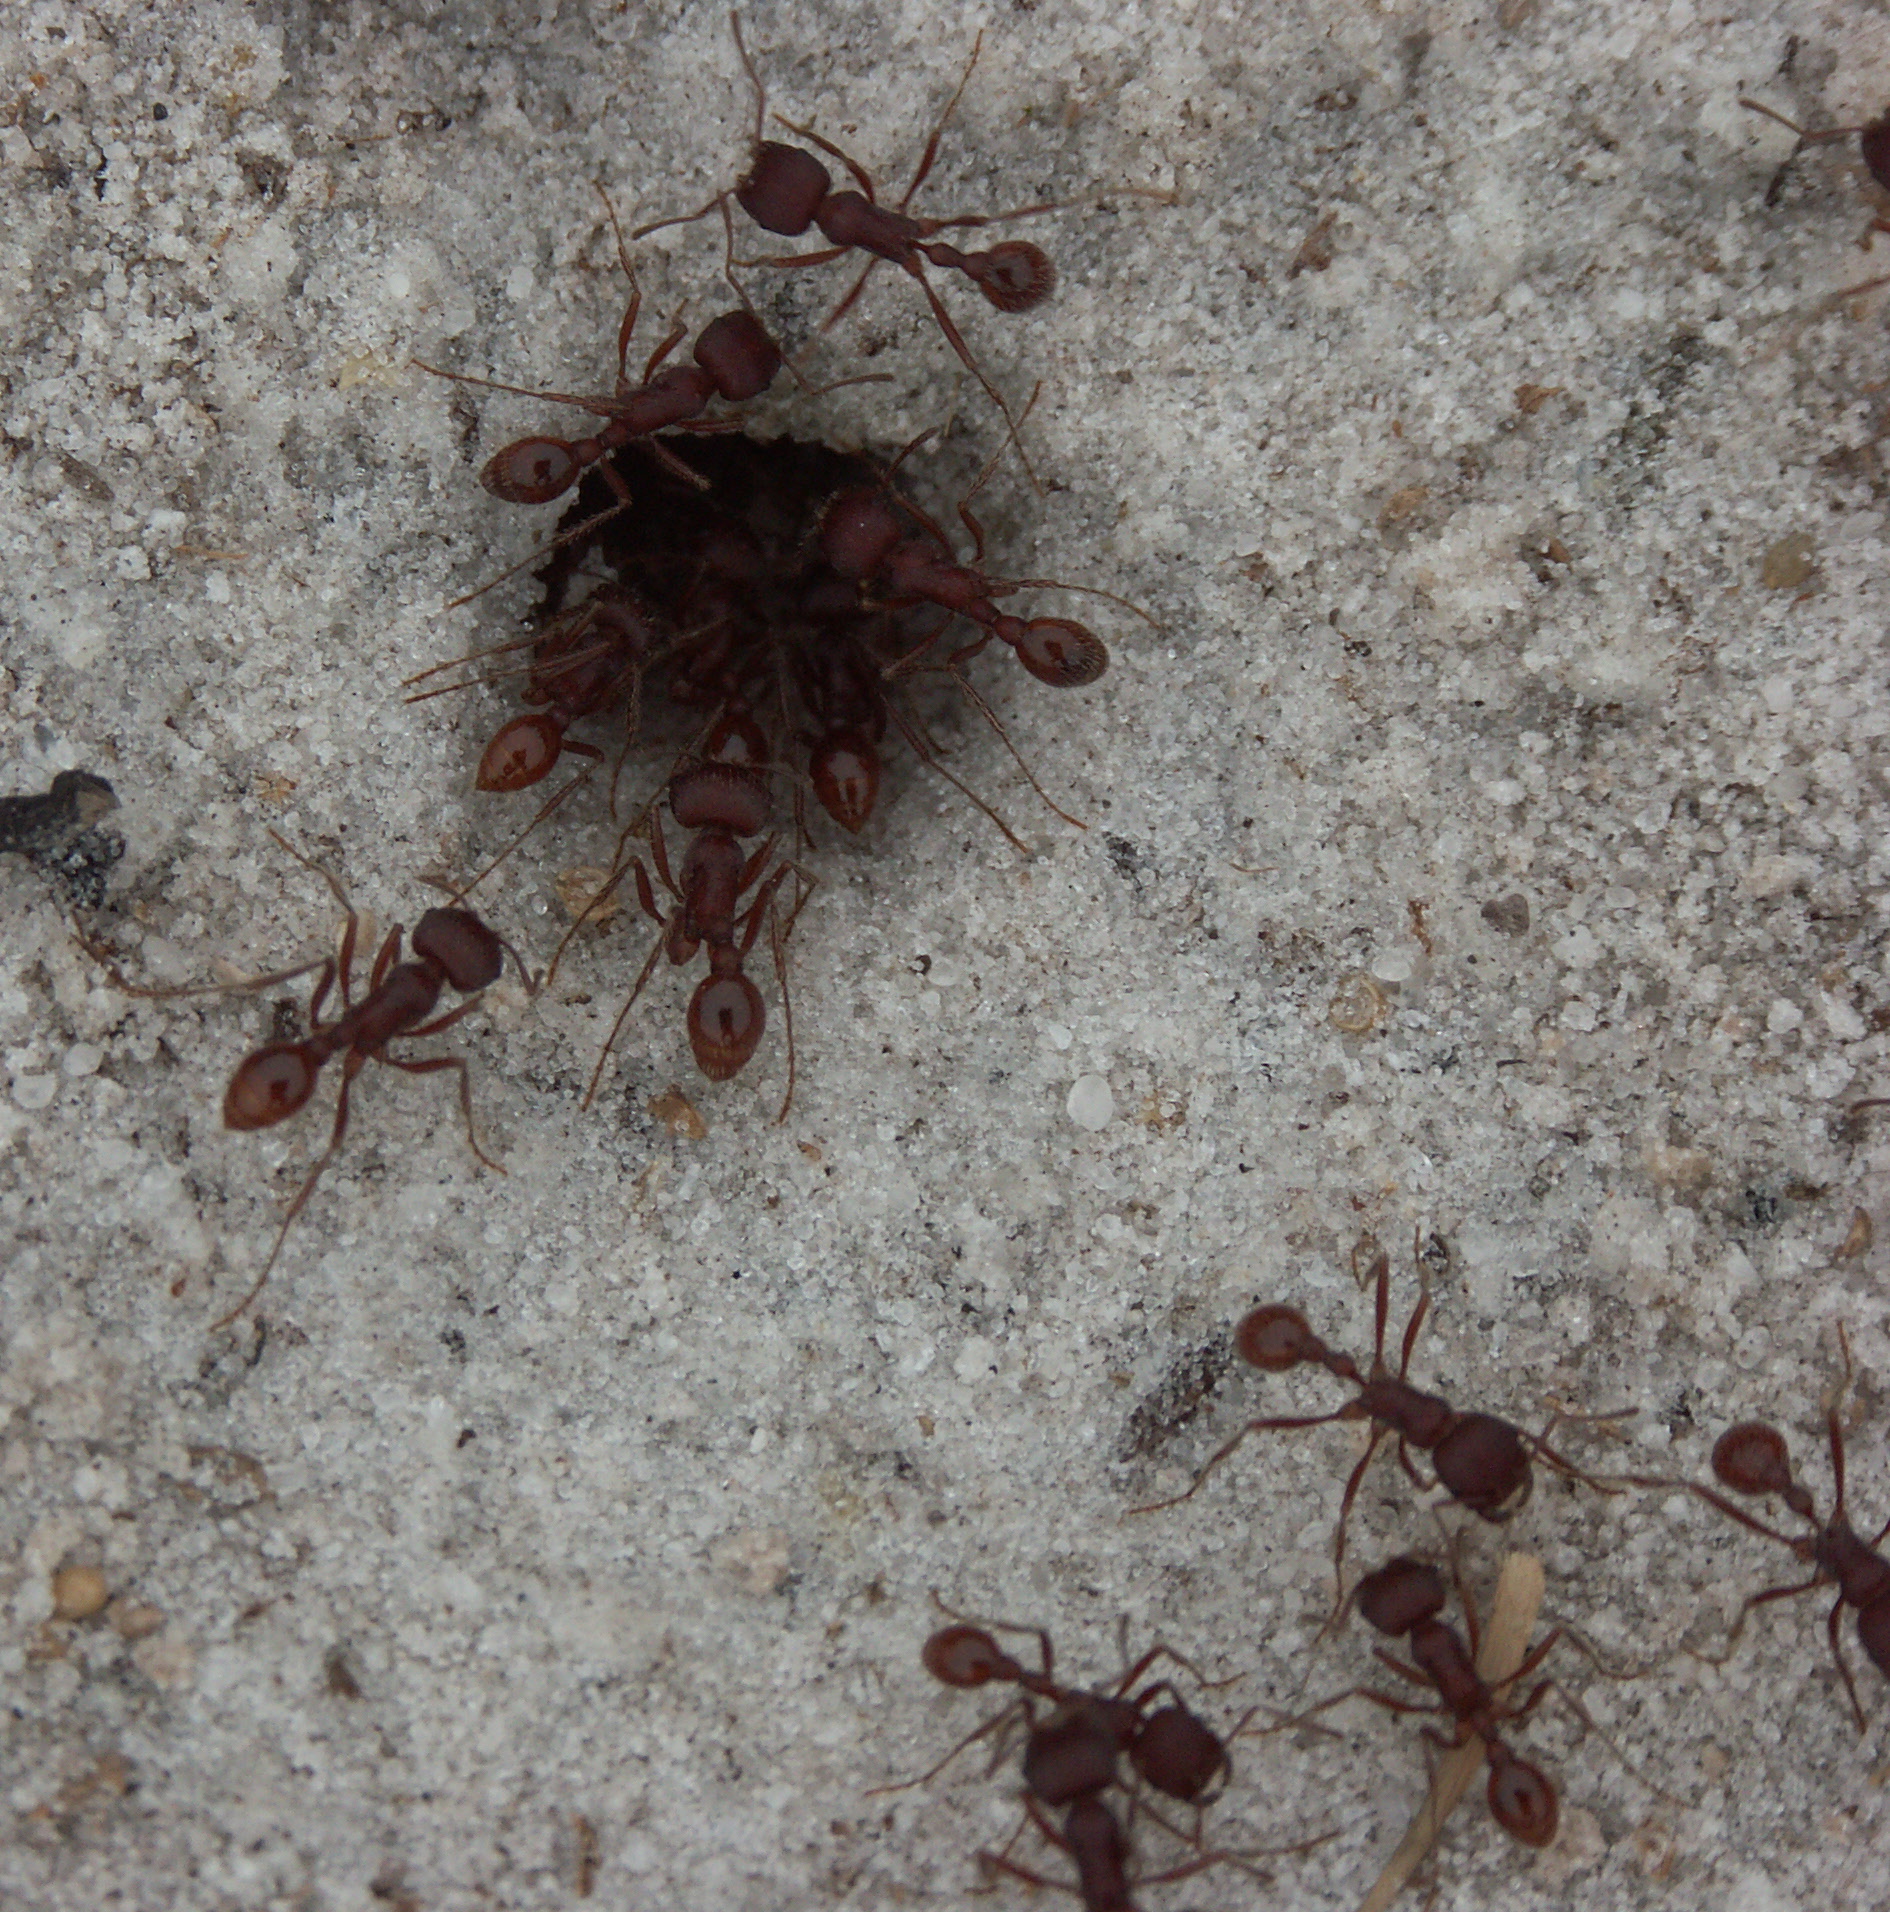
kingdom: Animalia
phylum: Arthropoda
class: Insecta
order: Hymenoptera
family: Formicidae
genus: Pogonomyrmex
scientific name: Pogonomyrmex badius
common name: Florida harvester ant
